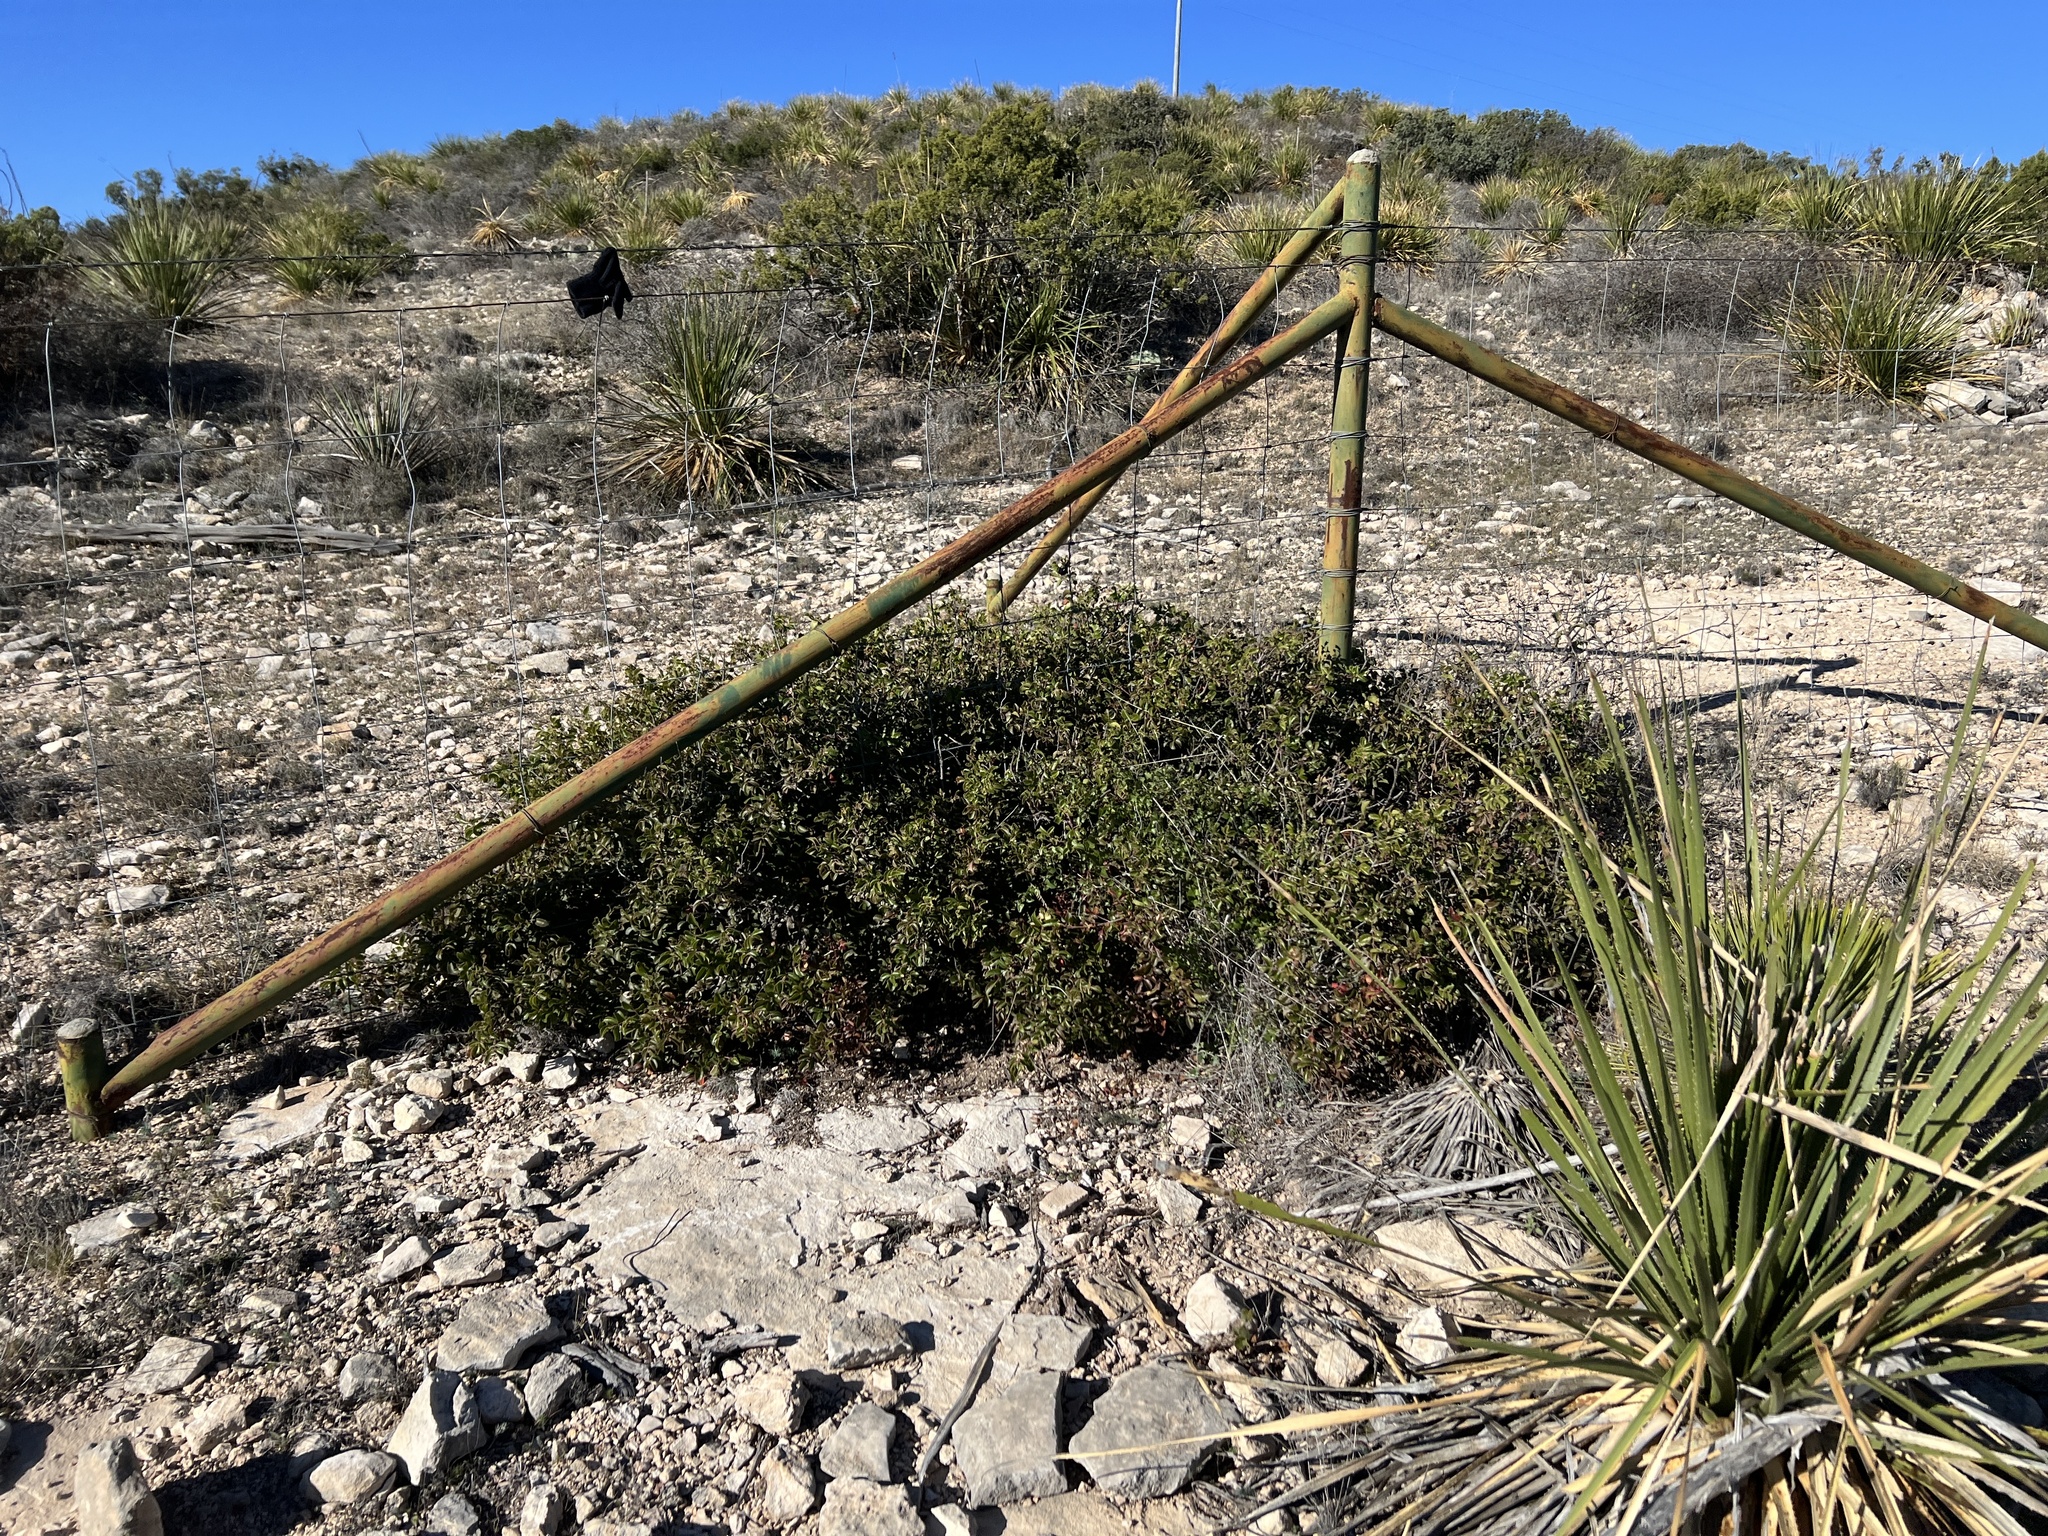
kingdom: Plantae
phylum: Tracheophyta
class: Magnoliopsida
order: Sapindales
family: Anacardiaceae
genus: Rhus
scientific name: Rhus virens
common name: Evergreen sumac
